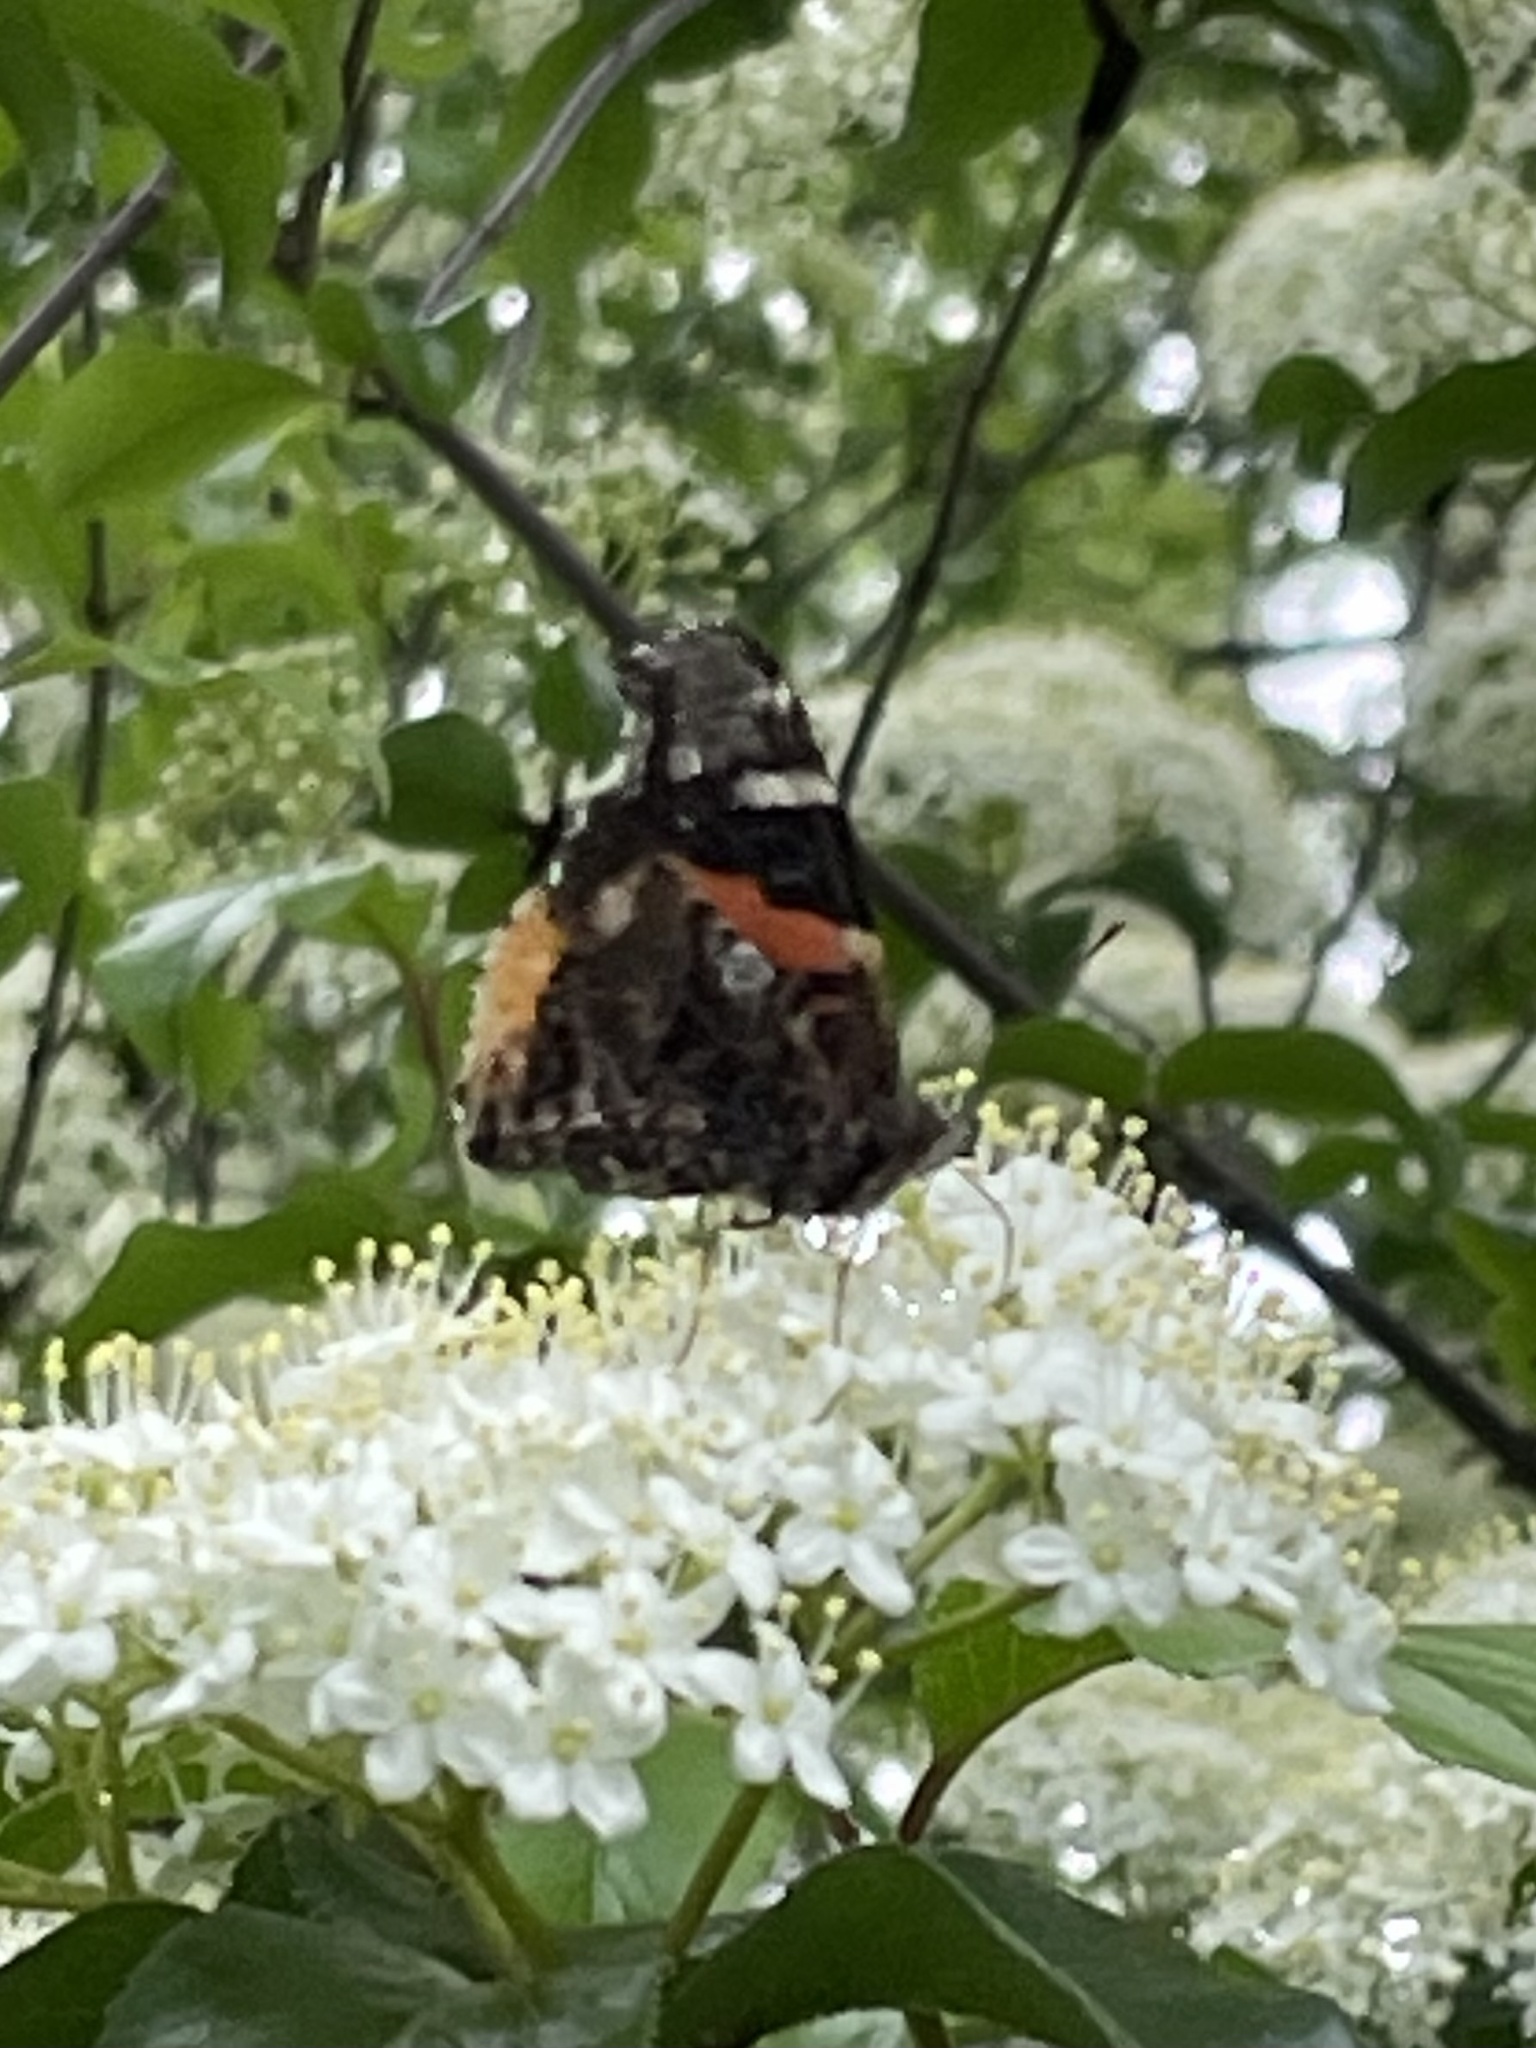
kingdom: Animalia
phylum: Arthropoda
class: Insecta
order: Lepidoptera
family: Nymphalidae
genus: Vanessa
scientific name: Vanessa atalanta
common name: Red admiral
